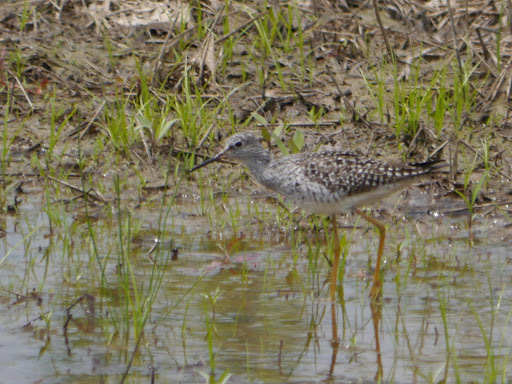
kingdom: Animalia
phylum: Chordata
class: Aves
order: Charadriiformes
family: Scolopacidae
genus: Tringa
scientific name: Tringa flavipes
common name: Lesser yellowlegs
